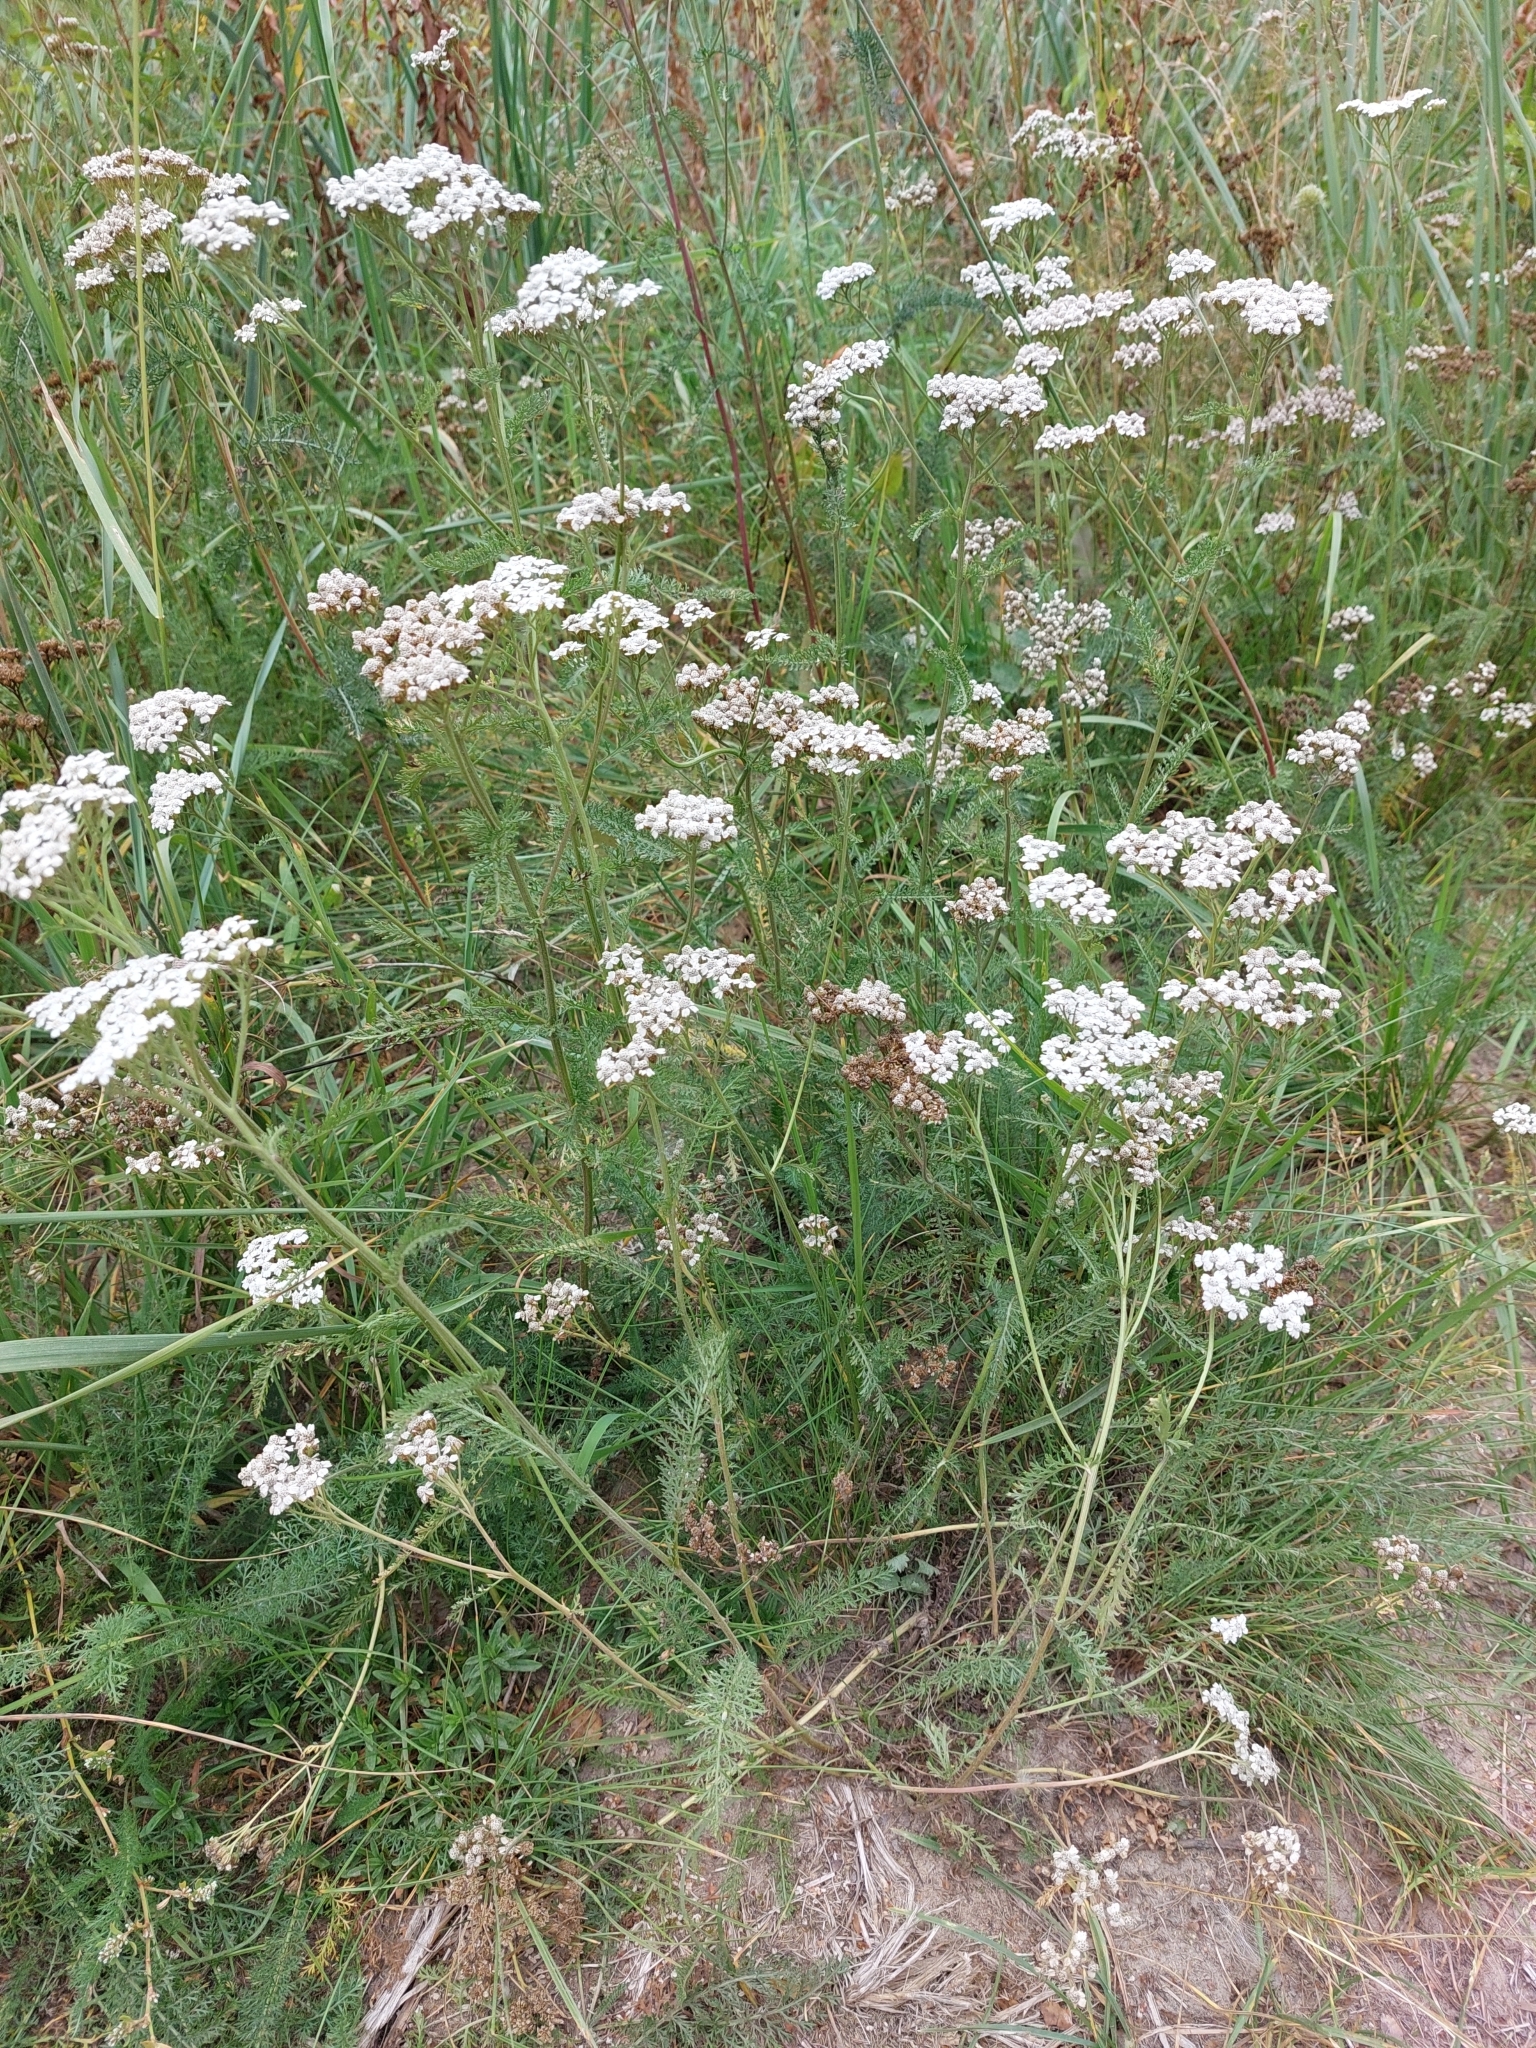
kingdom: Plantae
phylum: Tracheophyta
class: Magnoliopsida
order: Asterales
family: Asteraceae
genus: Achillea
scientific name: Achillea millefolium
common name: Yarrow
